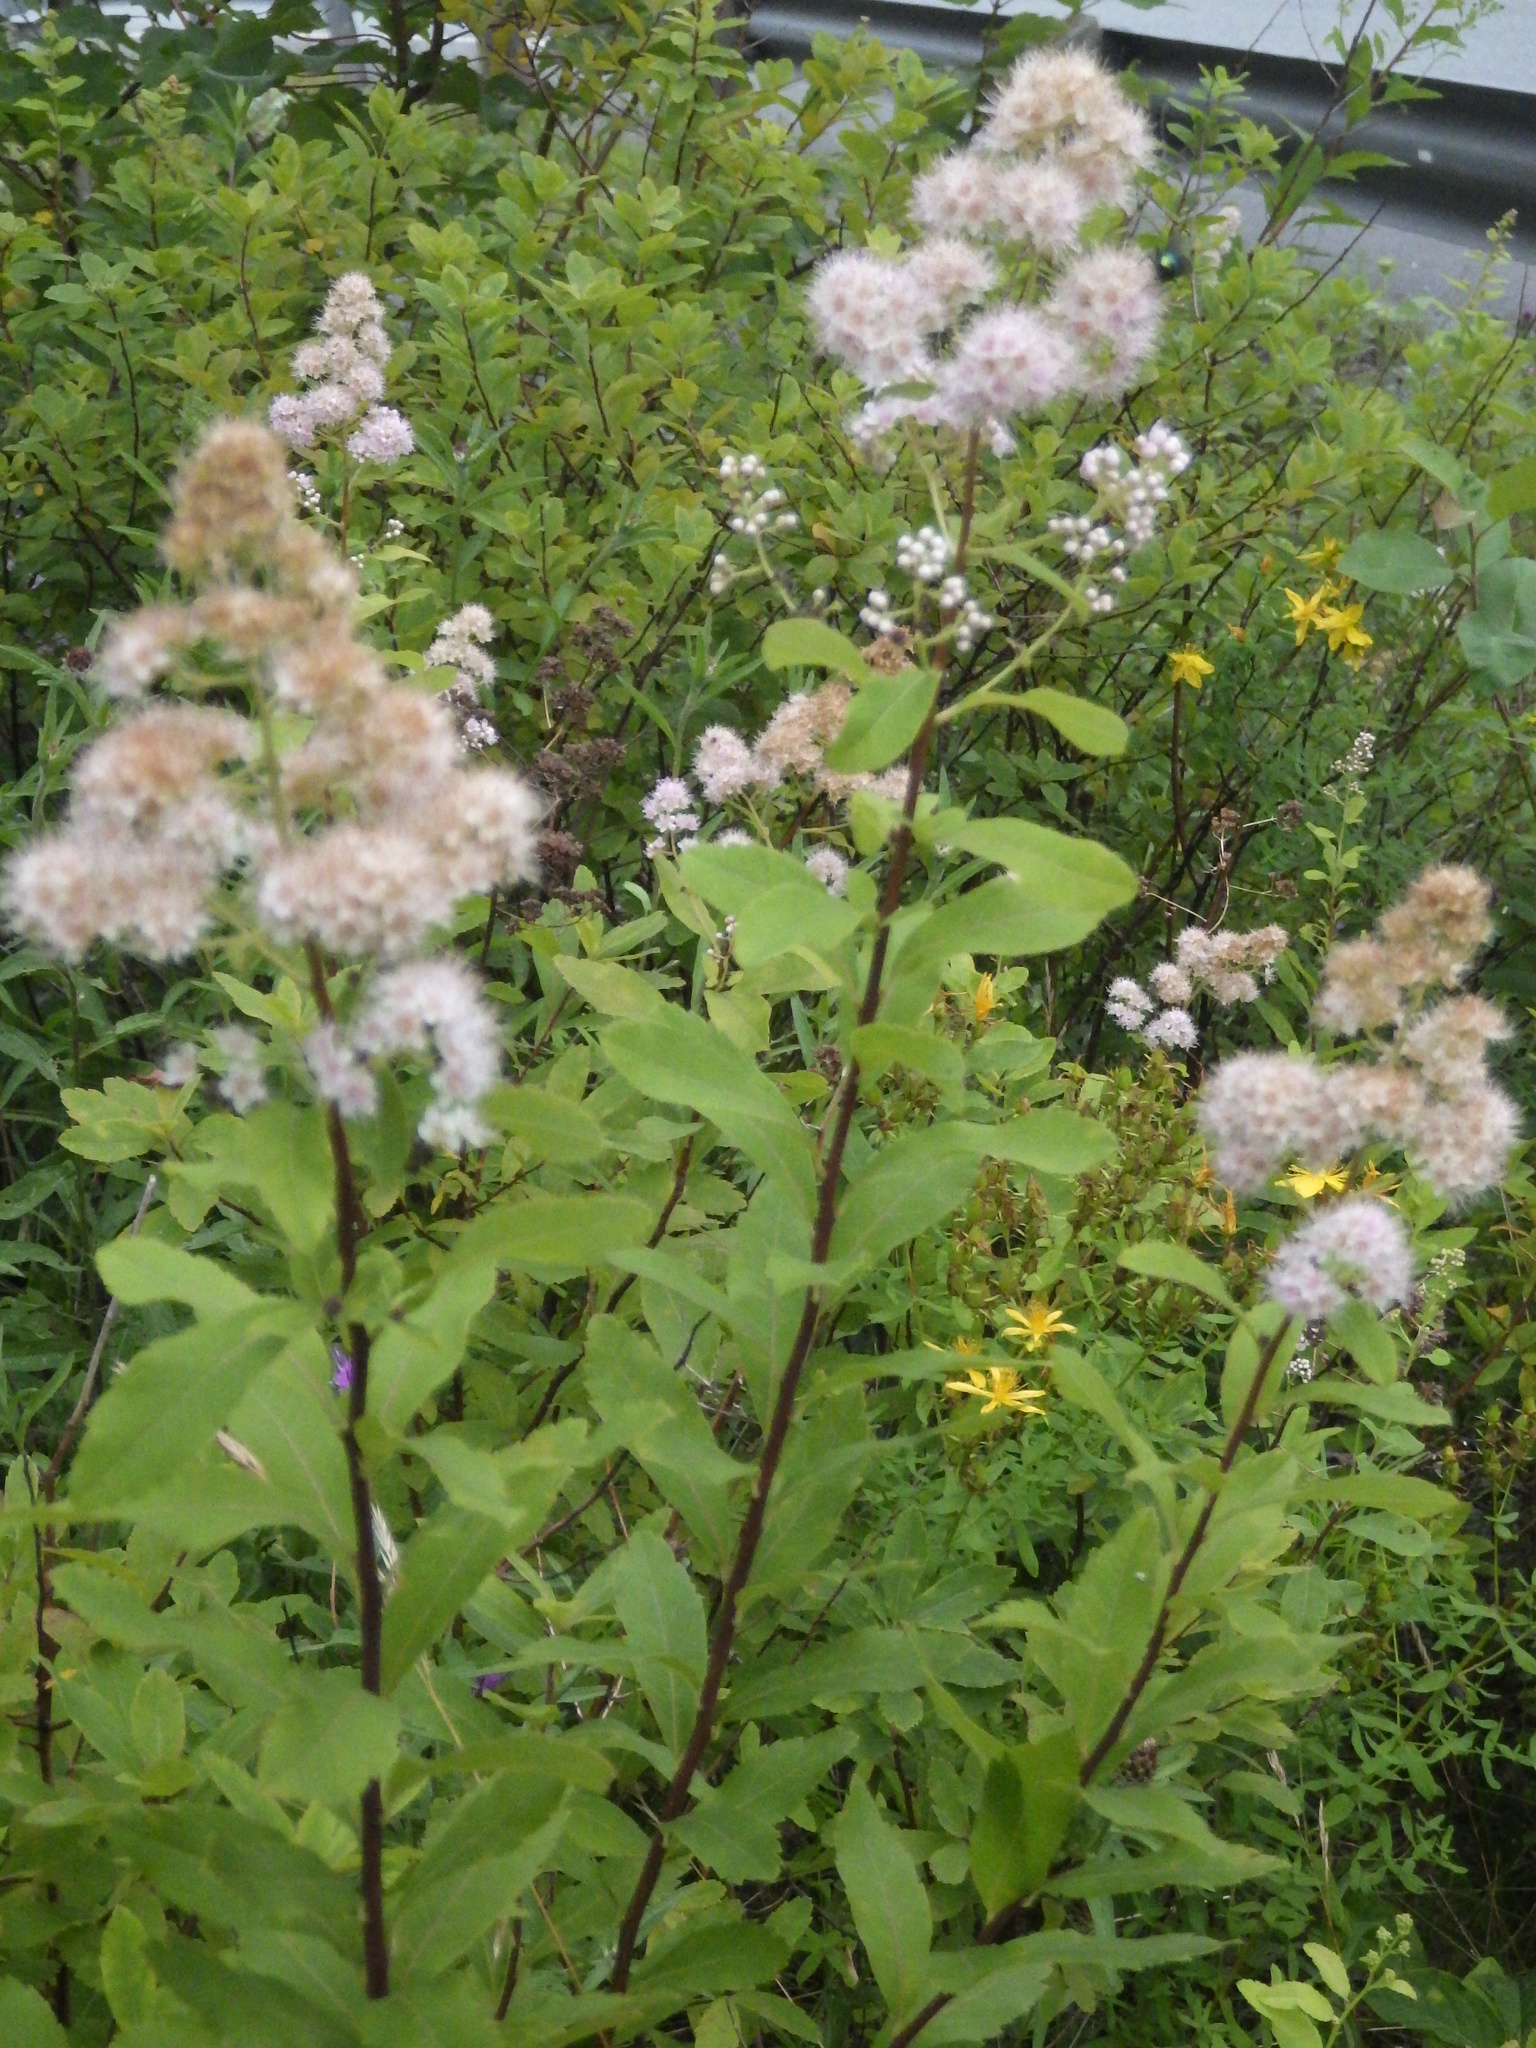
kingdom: Plantae
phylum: Tracheophyta
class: Magnoliopsida
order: Rosales
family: Rosaceae
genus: Spiraea
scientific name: Spiraea alba
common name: Pale bridewort
